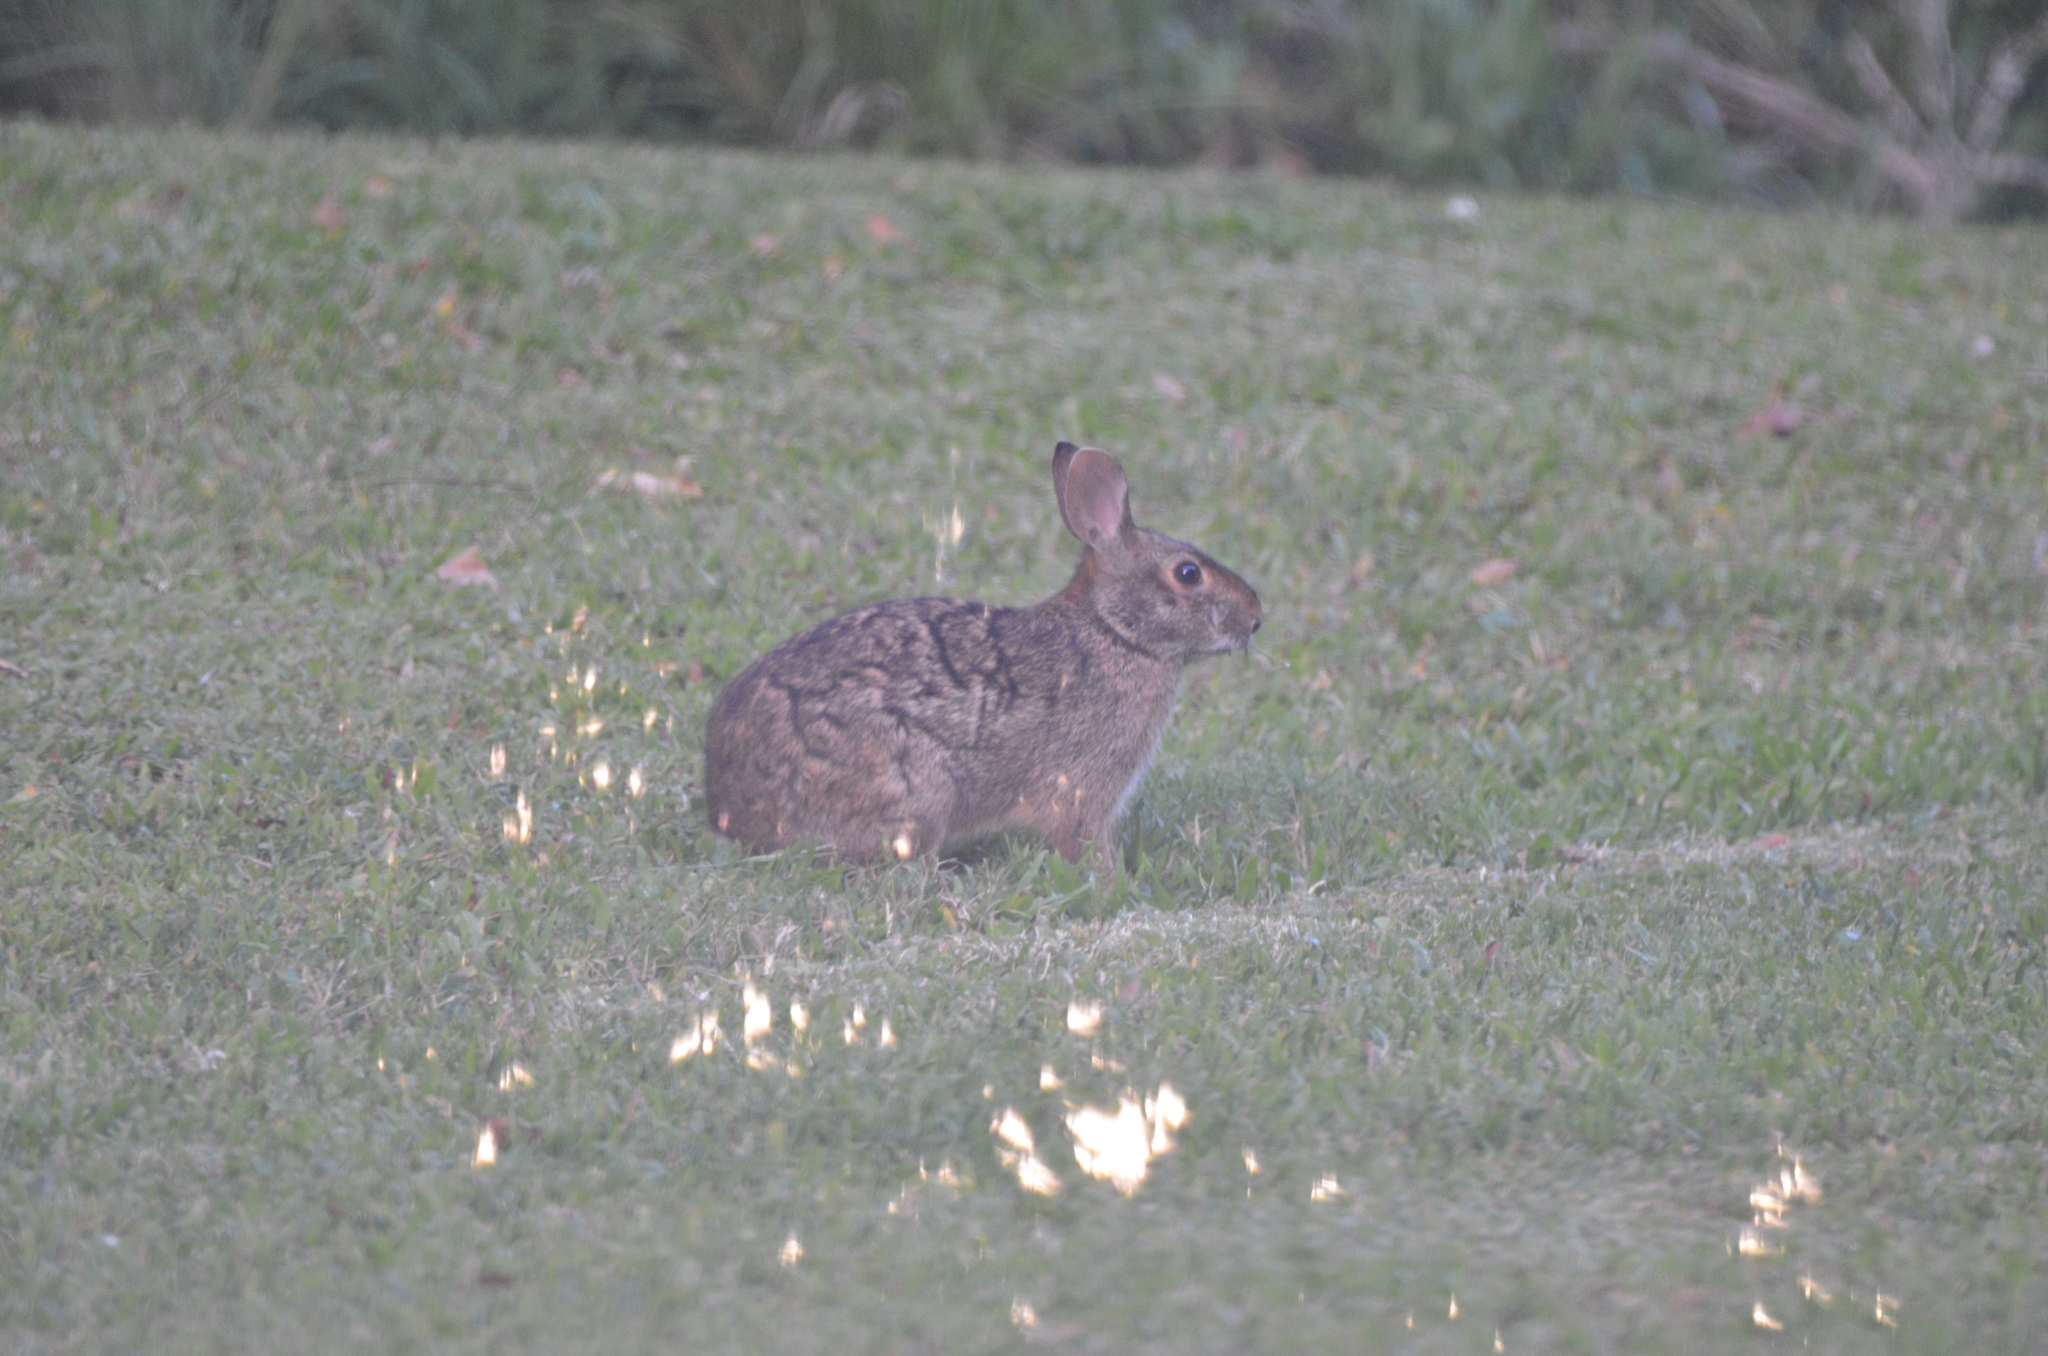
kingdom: Animalia
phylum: Chordata
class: Mammalia
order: Lagomorpha
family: Leporidae
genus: Sylvilagus
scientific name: Sylvilagus aquaticus
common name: Swamp rabbit
